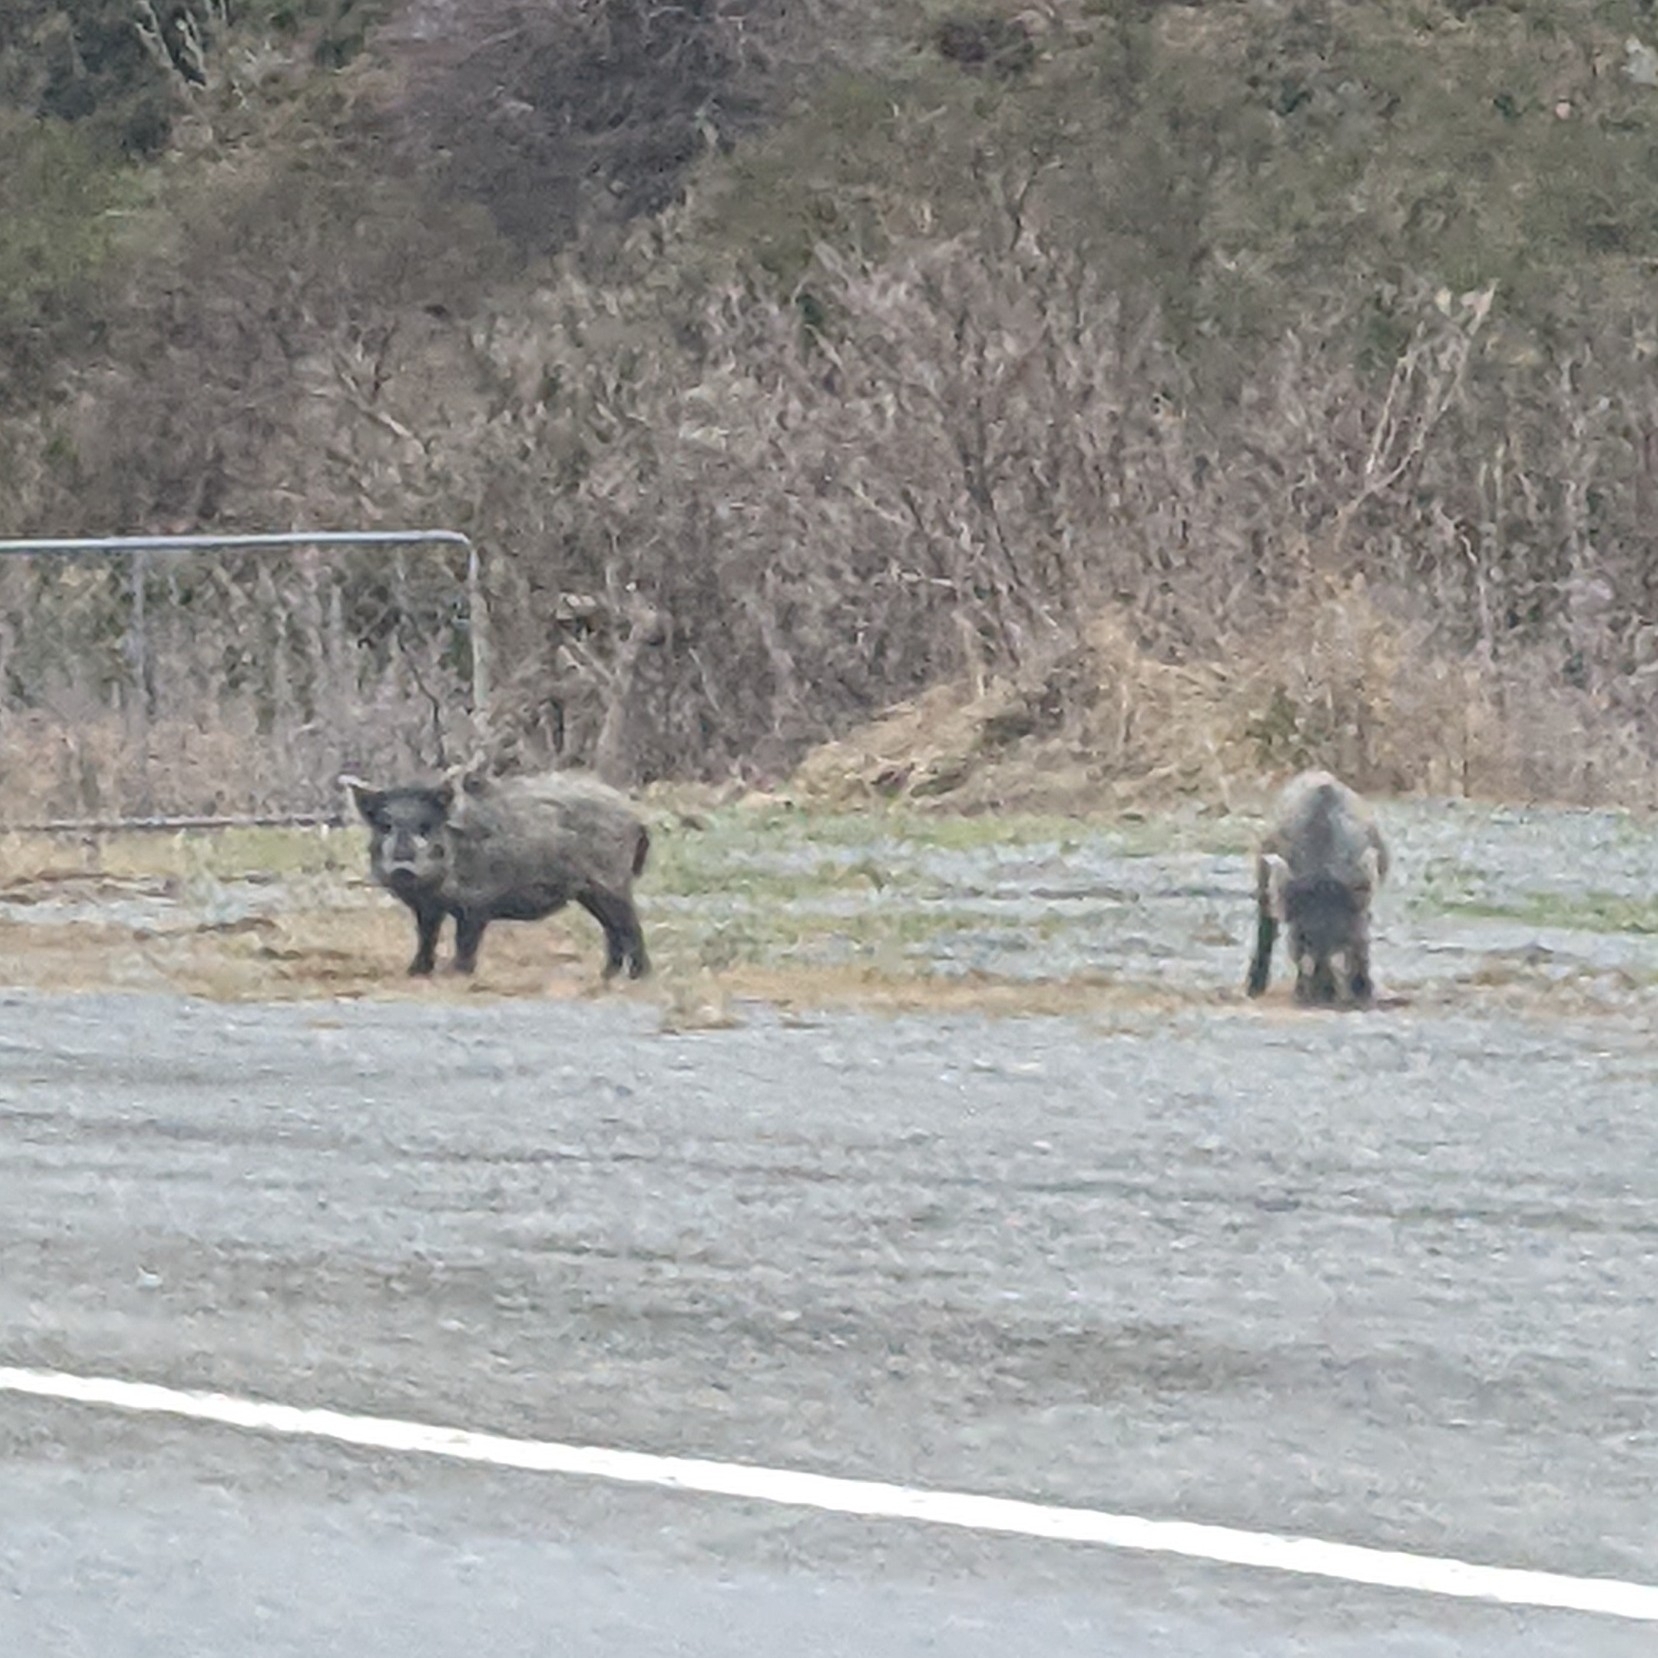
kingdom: Animalia
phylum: Chordata
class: Mammalia
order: Artiodactyla
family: Suidae
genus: Sus
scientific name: Sus scrofa
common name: Wild boar
